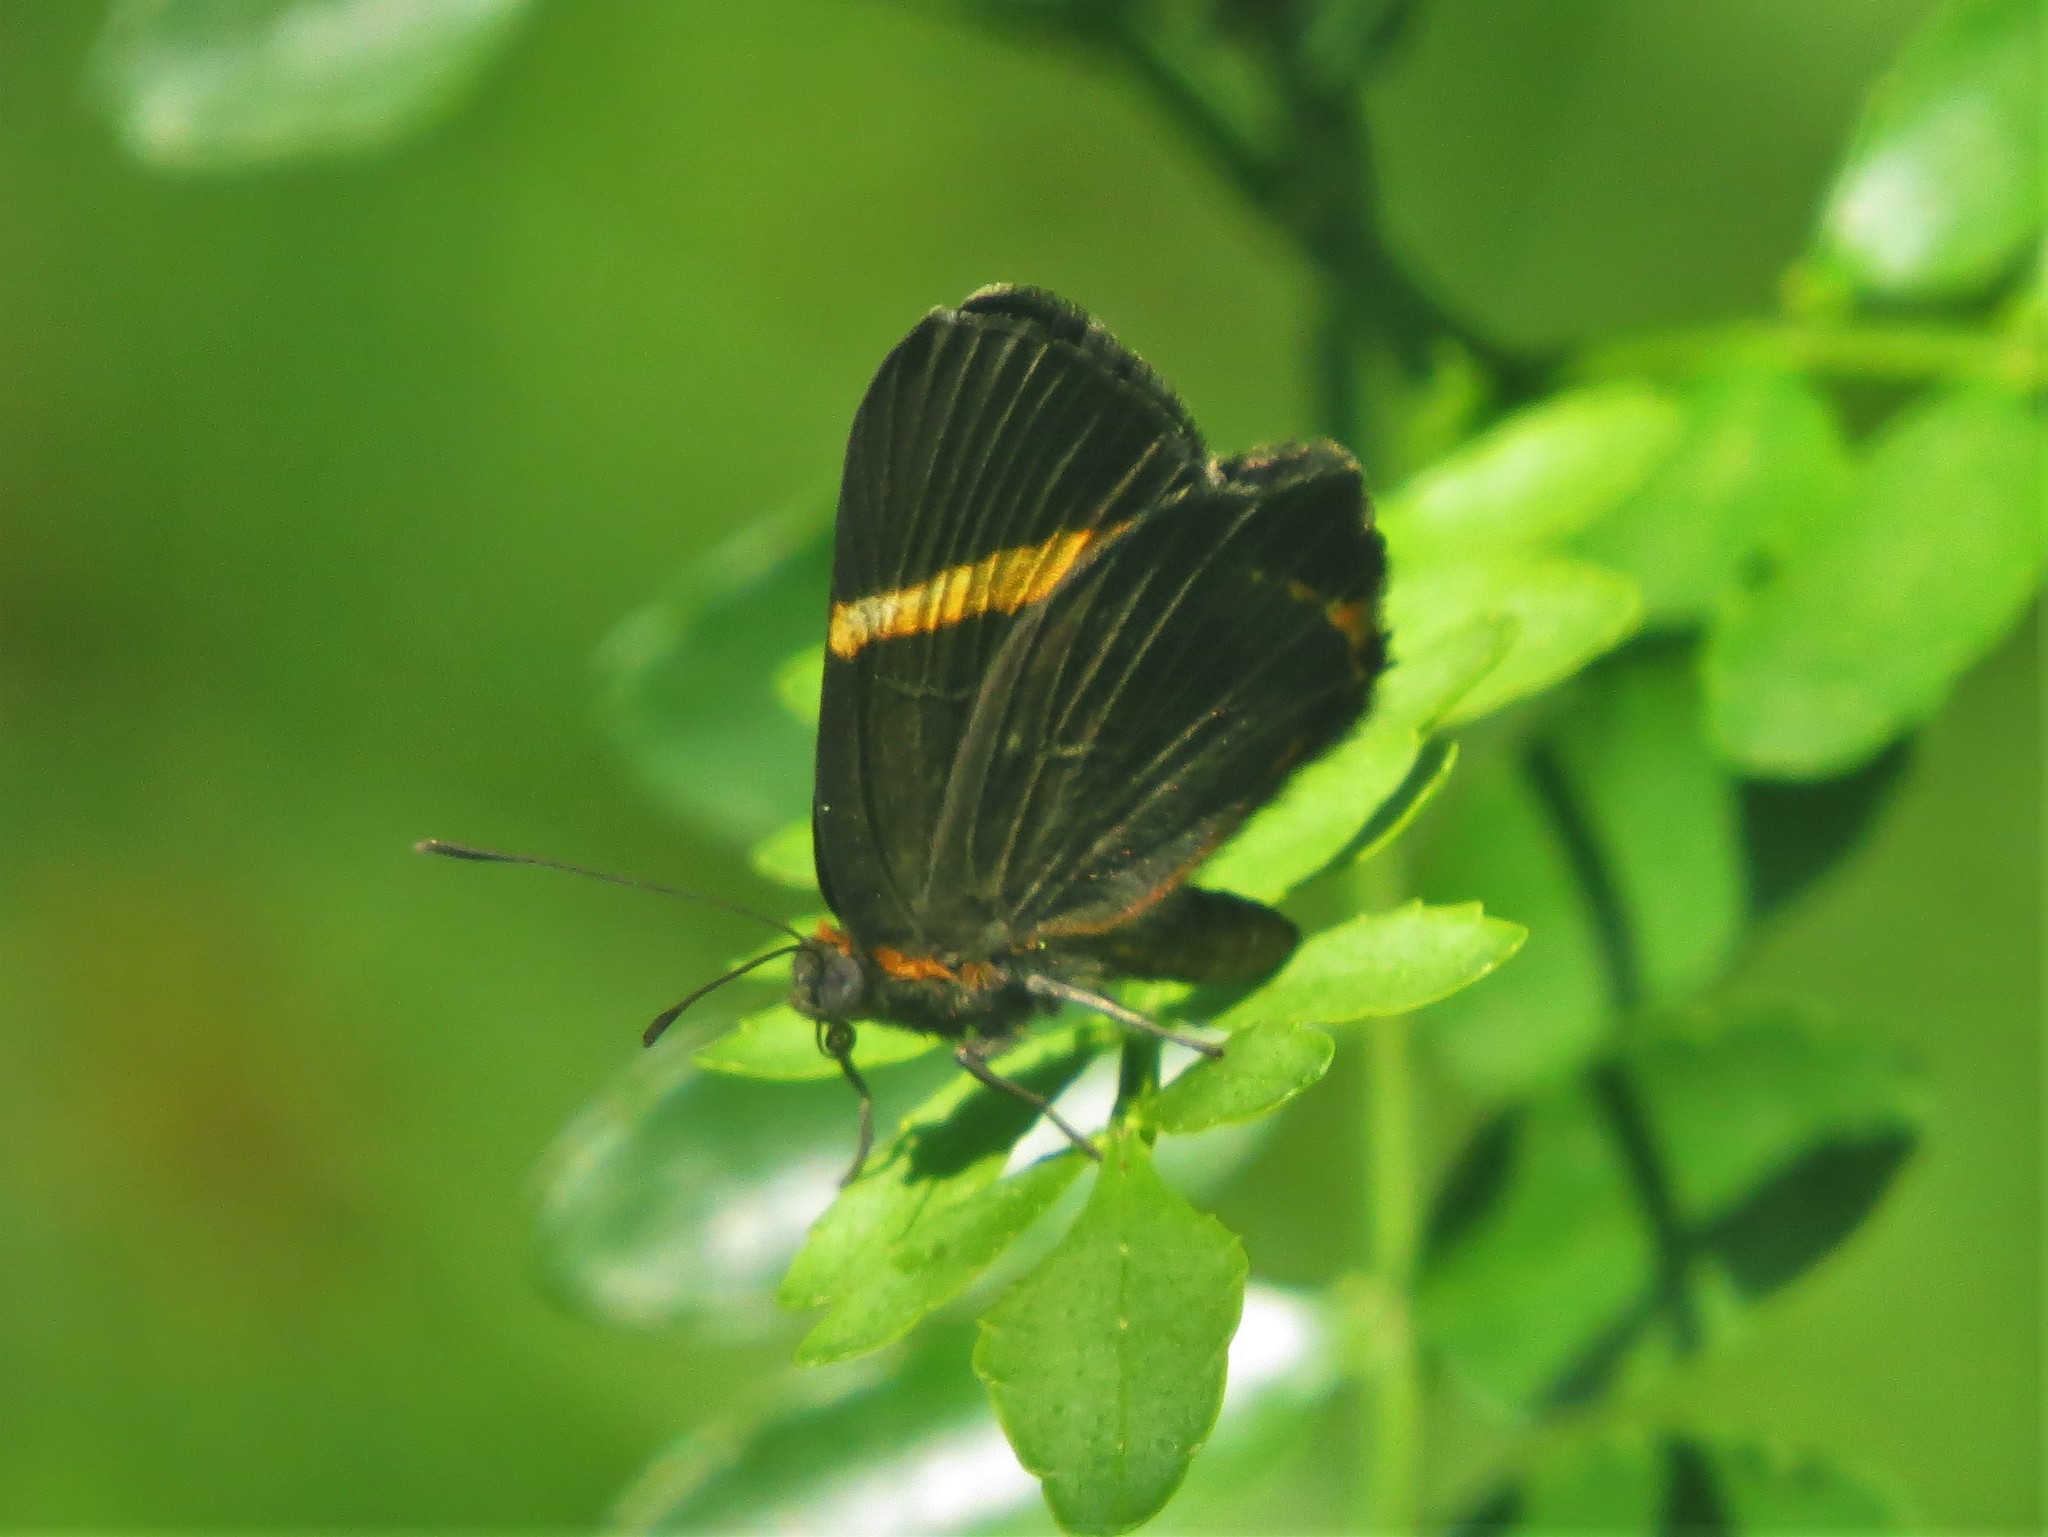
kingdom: Animalia
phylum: Arthropoda
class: Insecta
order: Lepidoptera
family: Riodinidae
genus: Riodina
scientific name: Riodina lysippoides
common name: Little dancer metalmark
